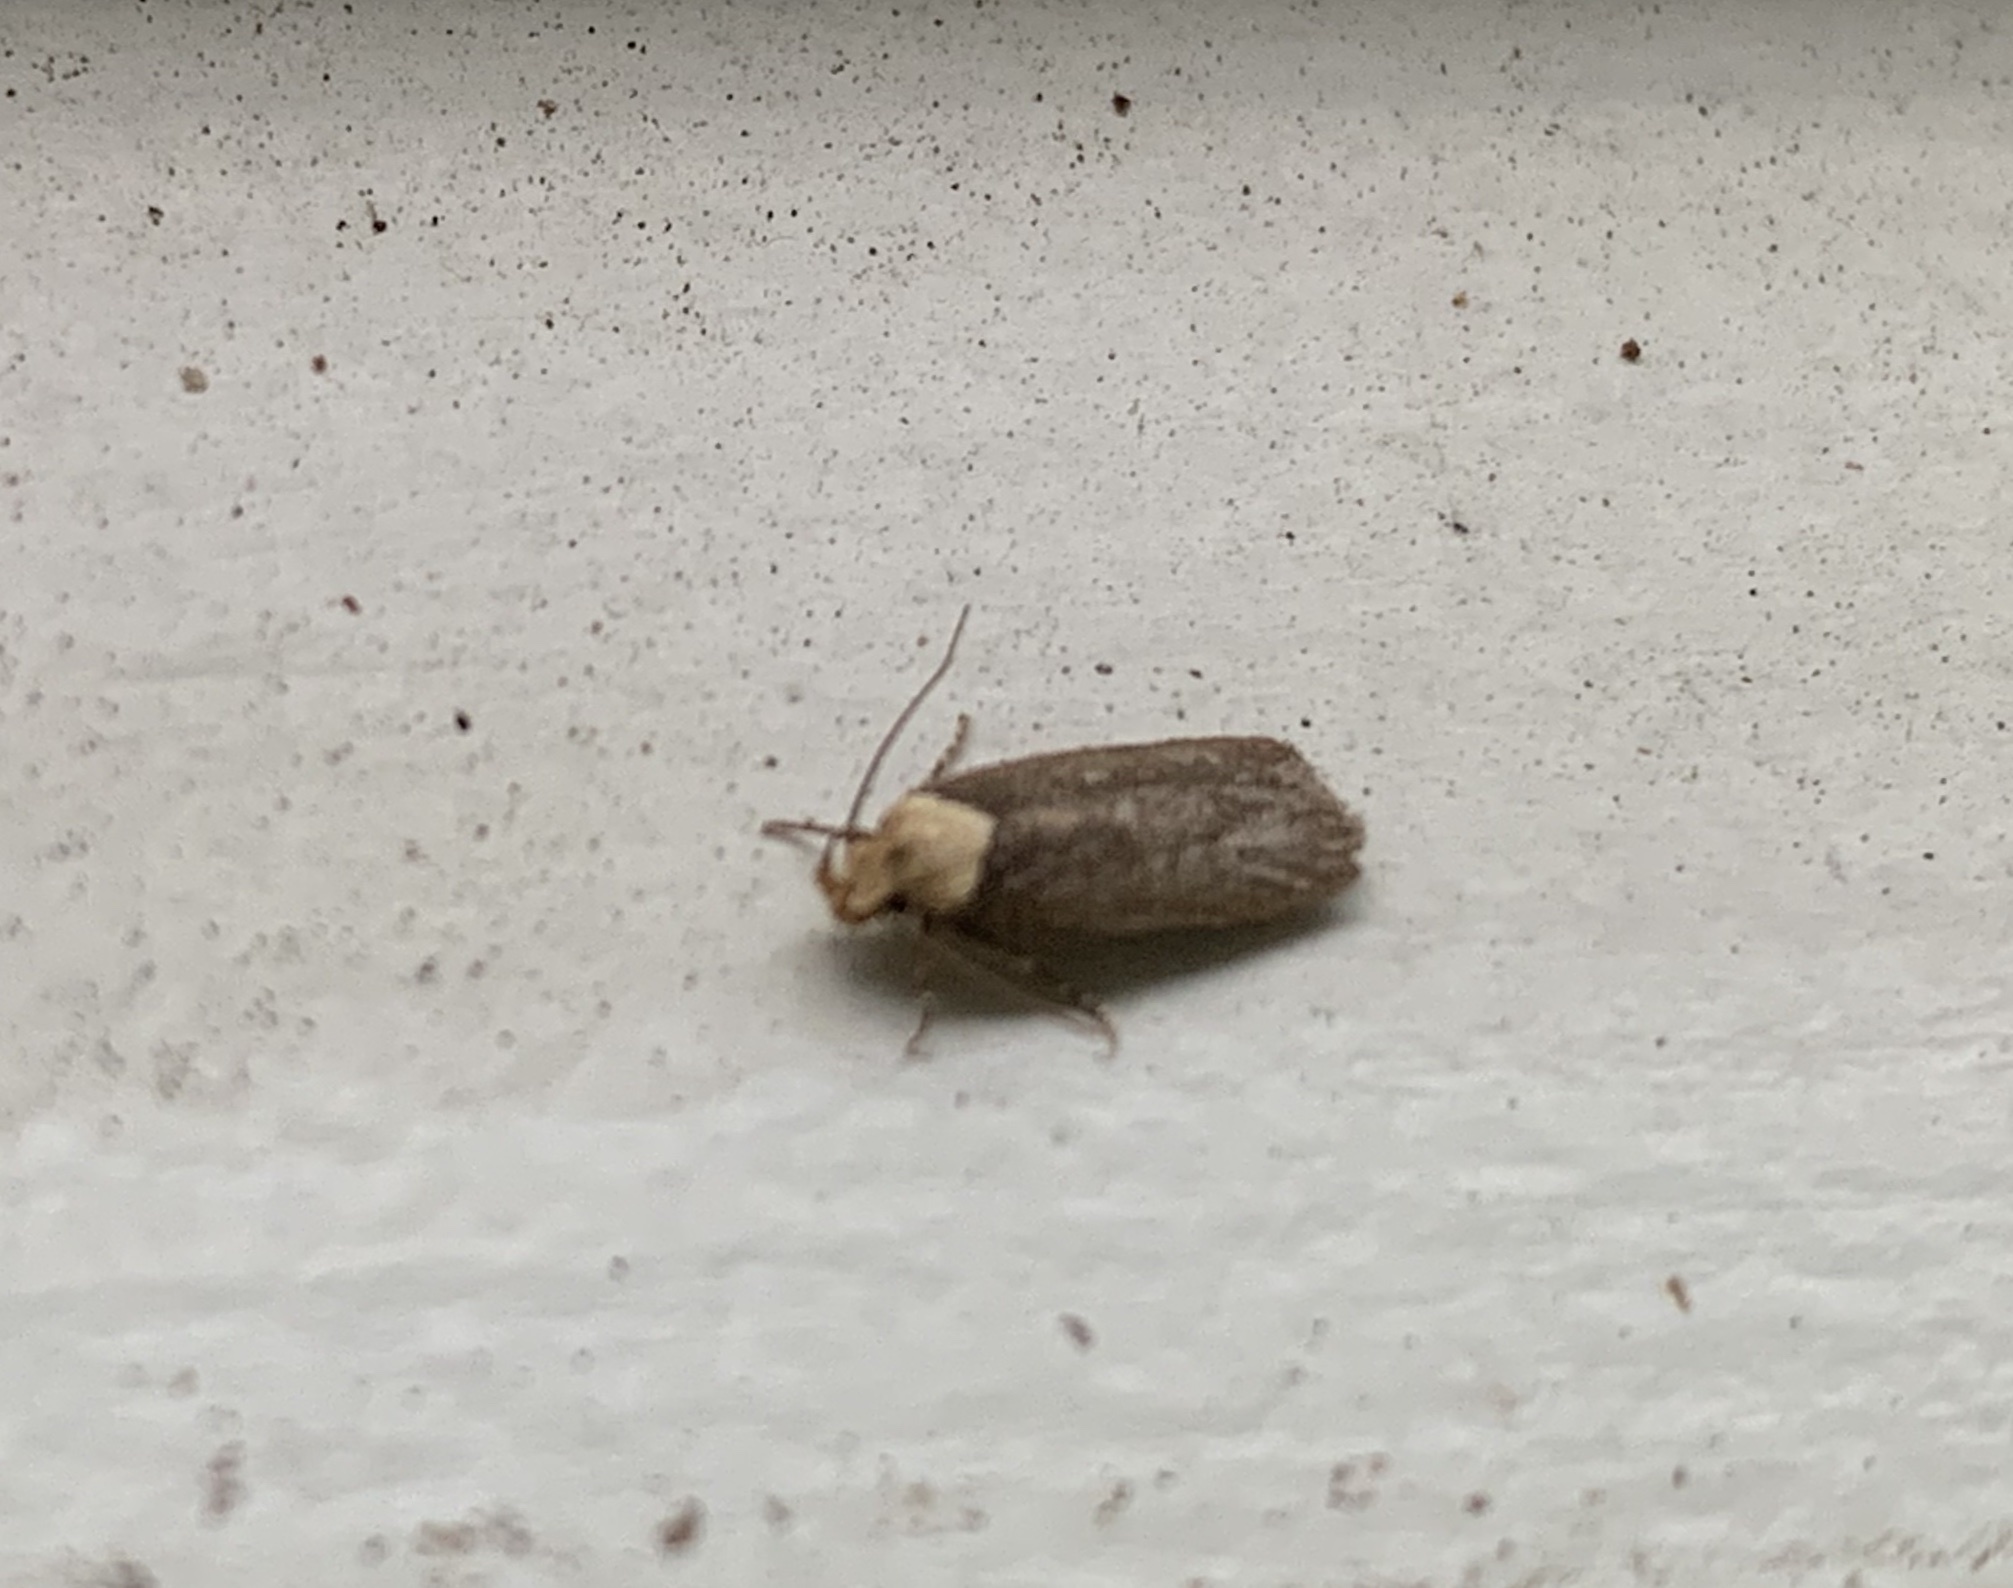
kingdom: Animalia
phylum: Arthropoda
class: Insecta
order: Lepidoptera
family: Depressariidae
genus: Depressaria
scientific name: Depressaria depressana
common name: Lost flat-body
